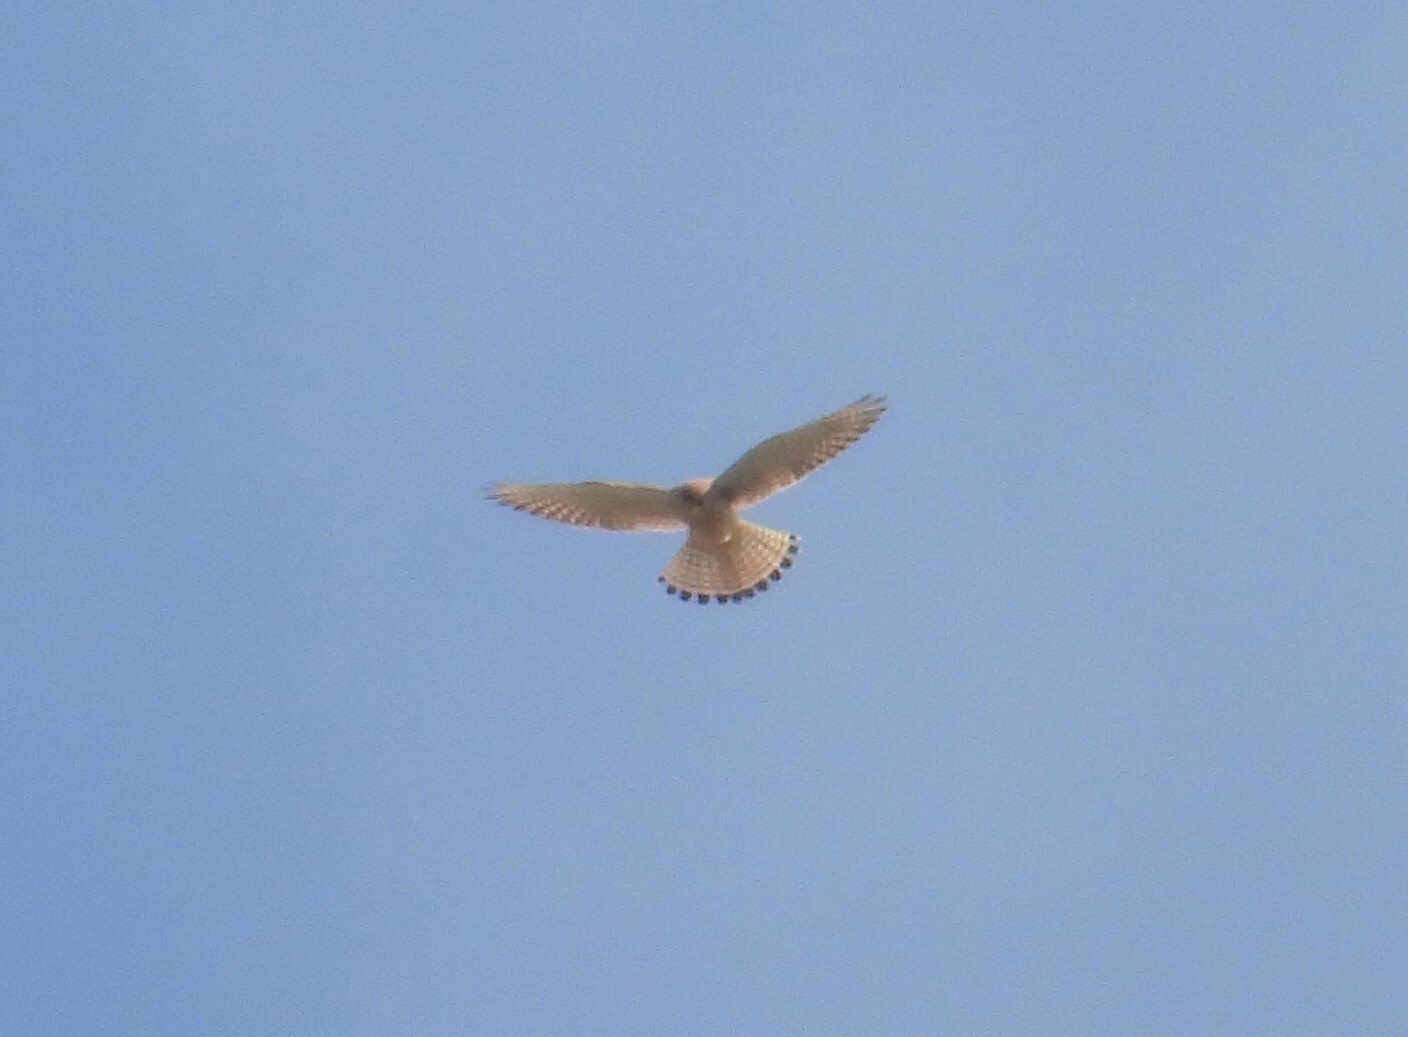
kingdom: Animalia
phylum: Chordata
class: Aves
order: Falconiformes
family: Falconidae
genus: Falco
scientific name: Falco tinnunculus
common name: Common kestrel
